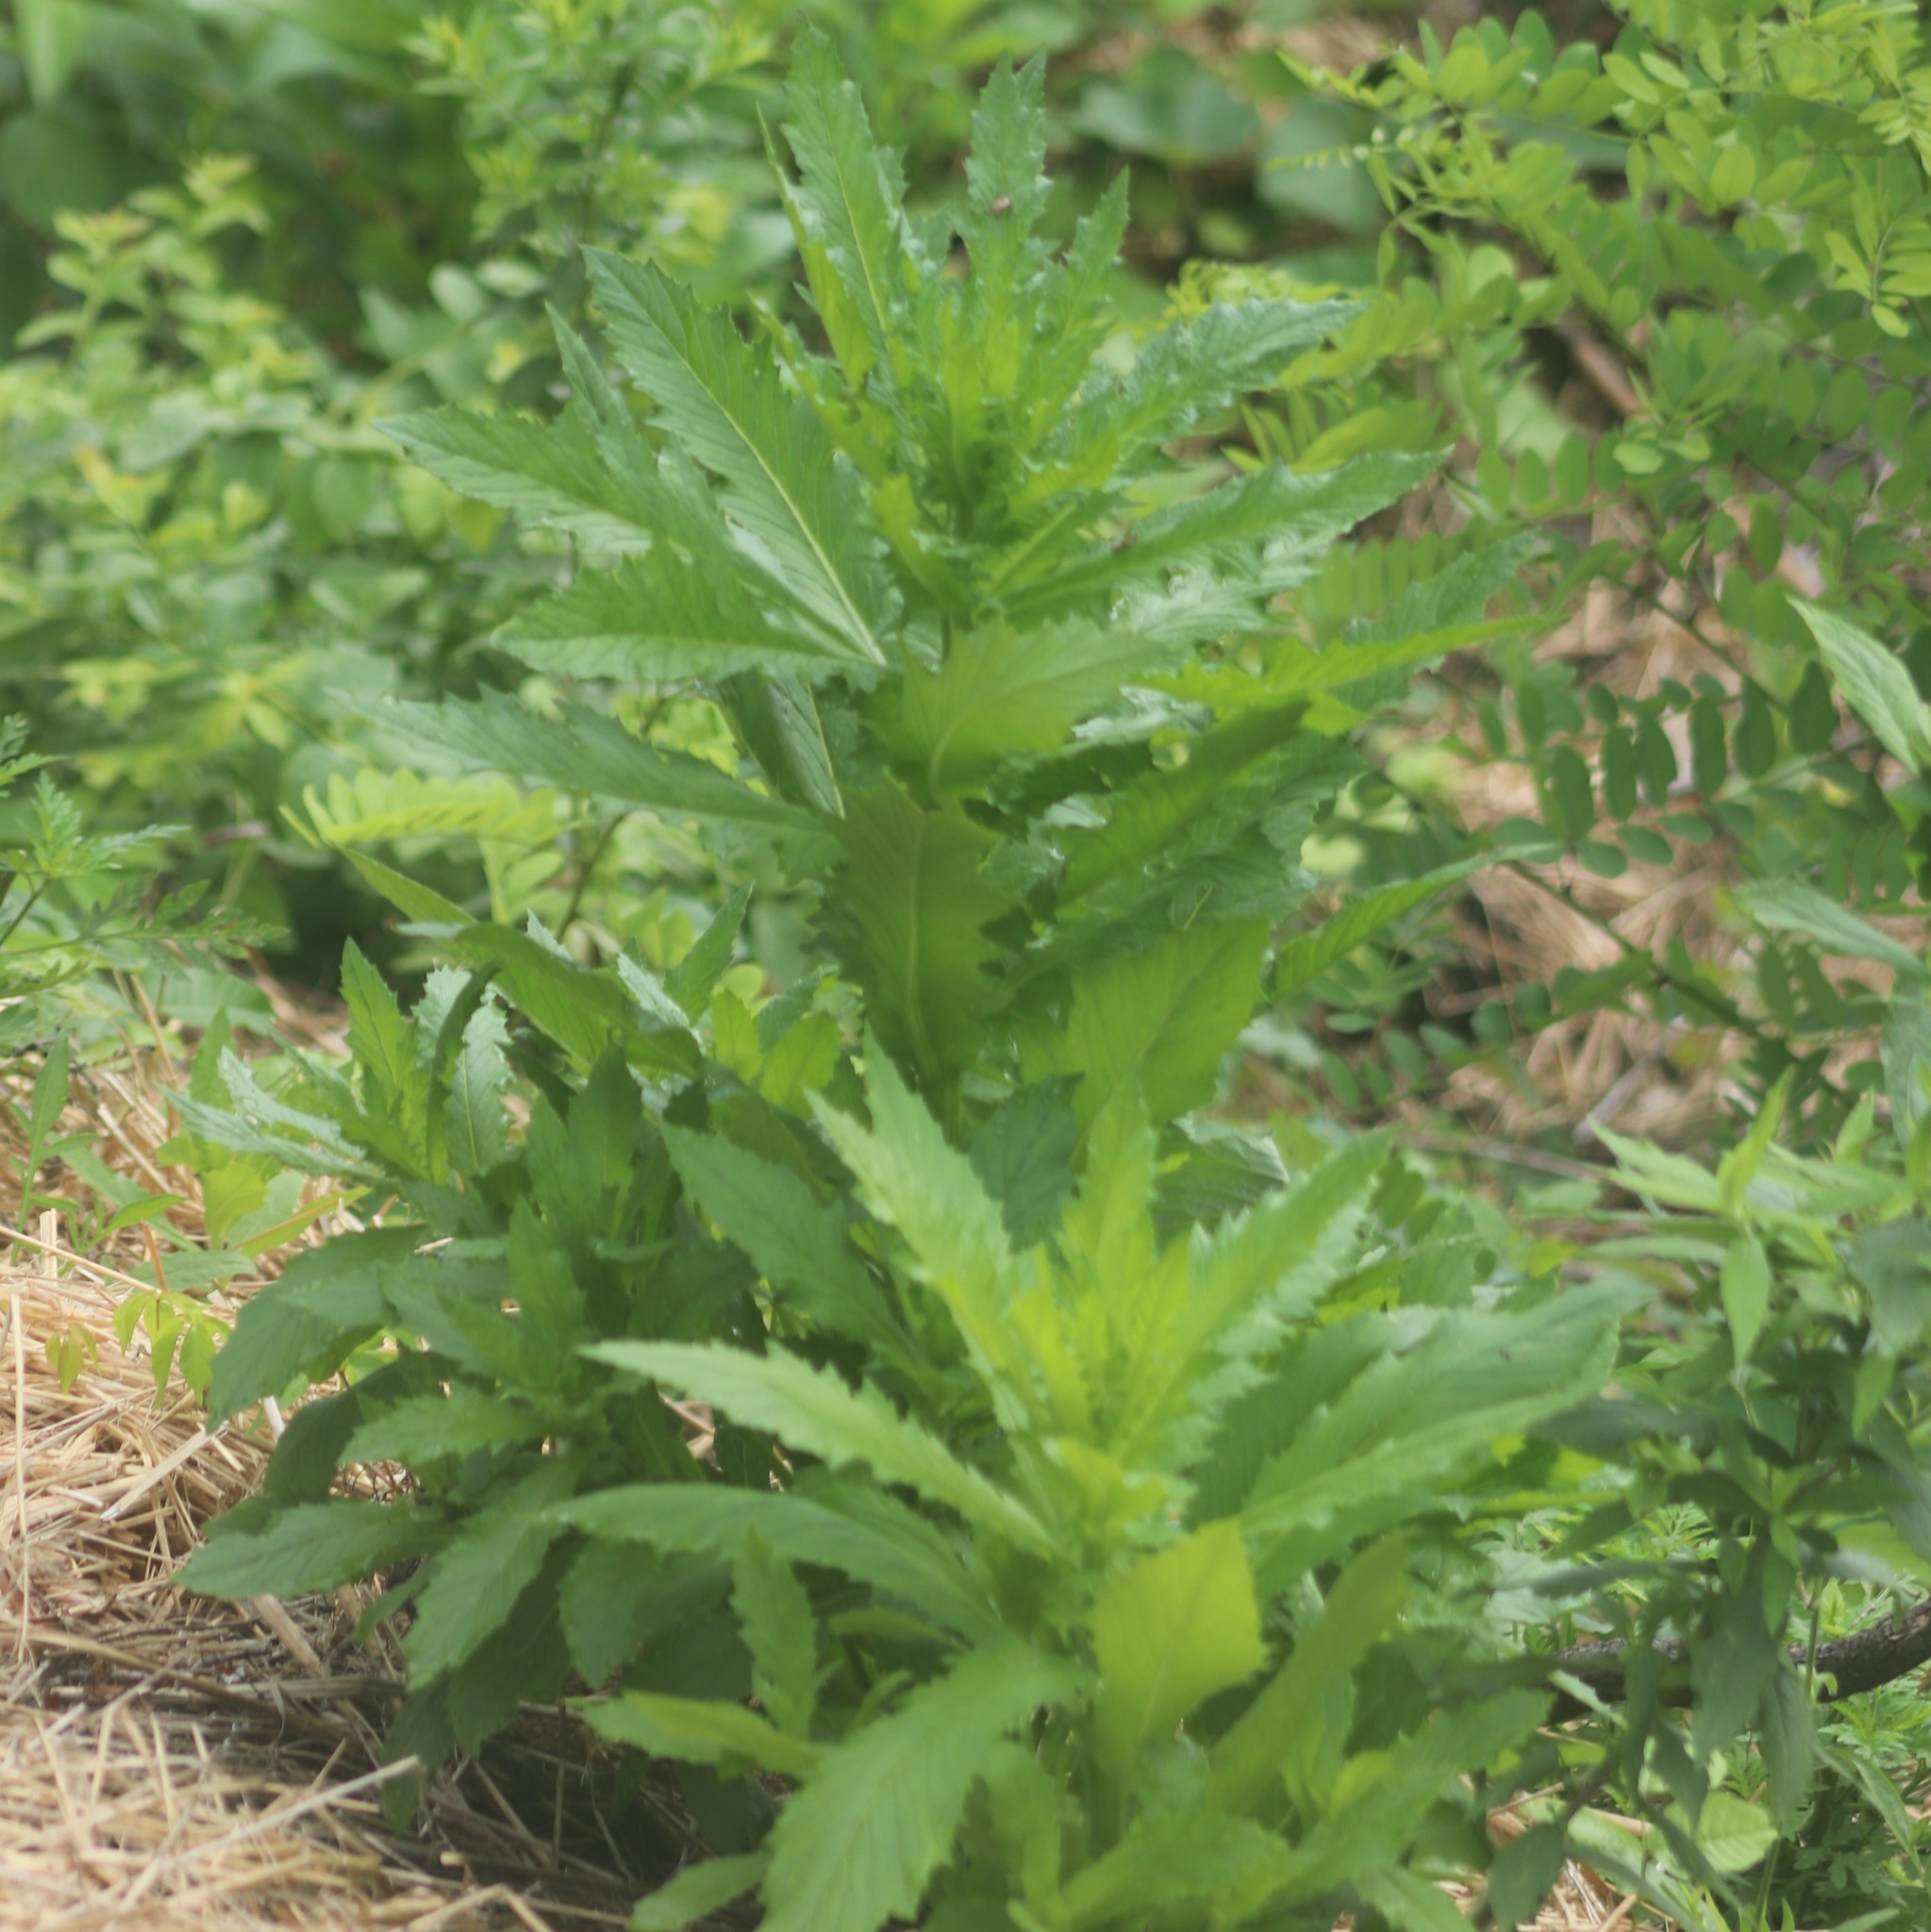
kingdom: Plantae
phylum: Tracheophyta
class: Magnoliopsida
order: Asterales
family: Asteraceae
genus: Erechtites
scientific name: Erechtites hieraciifolius
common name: American burnweed
